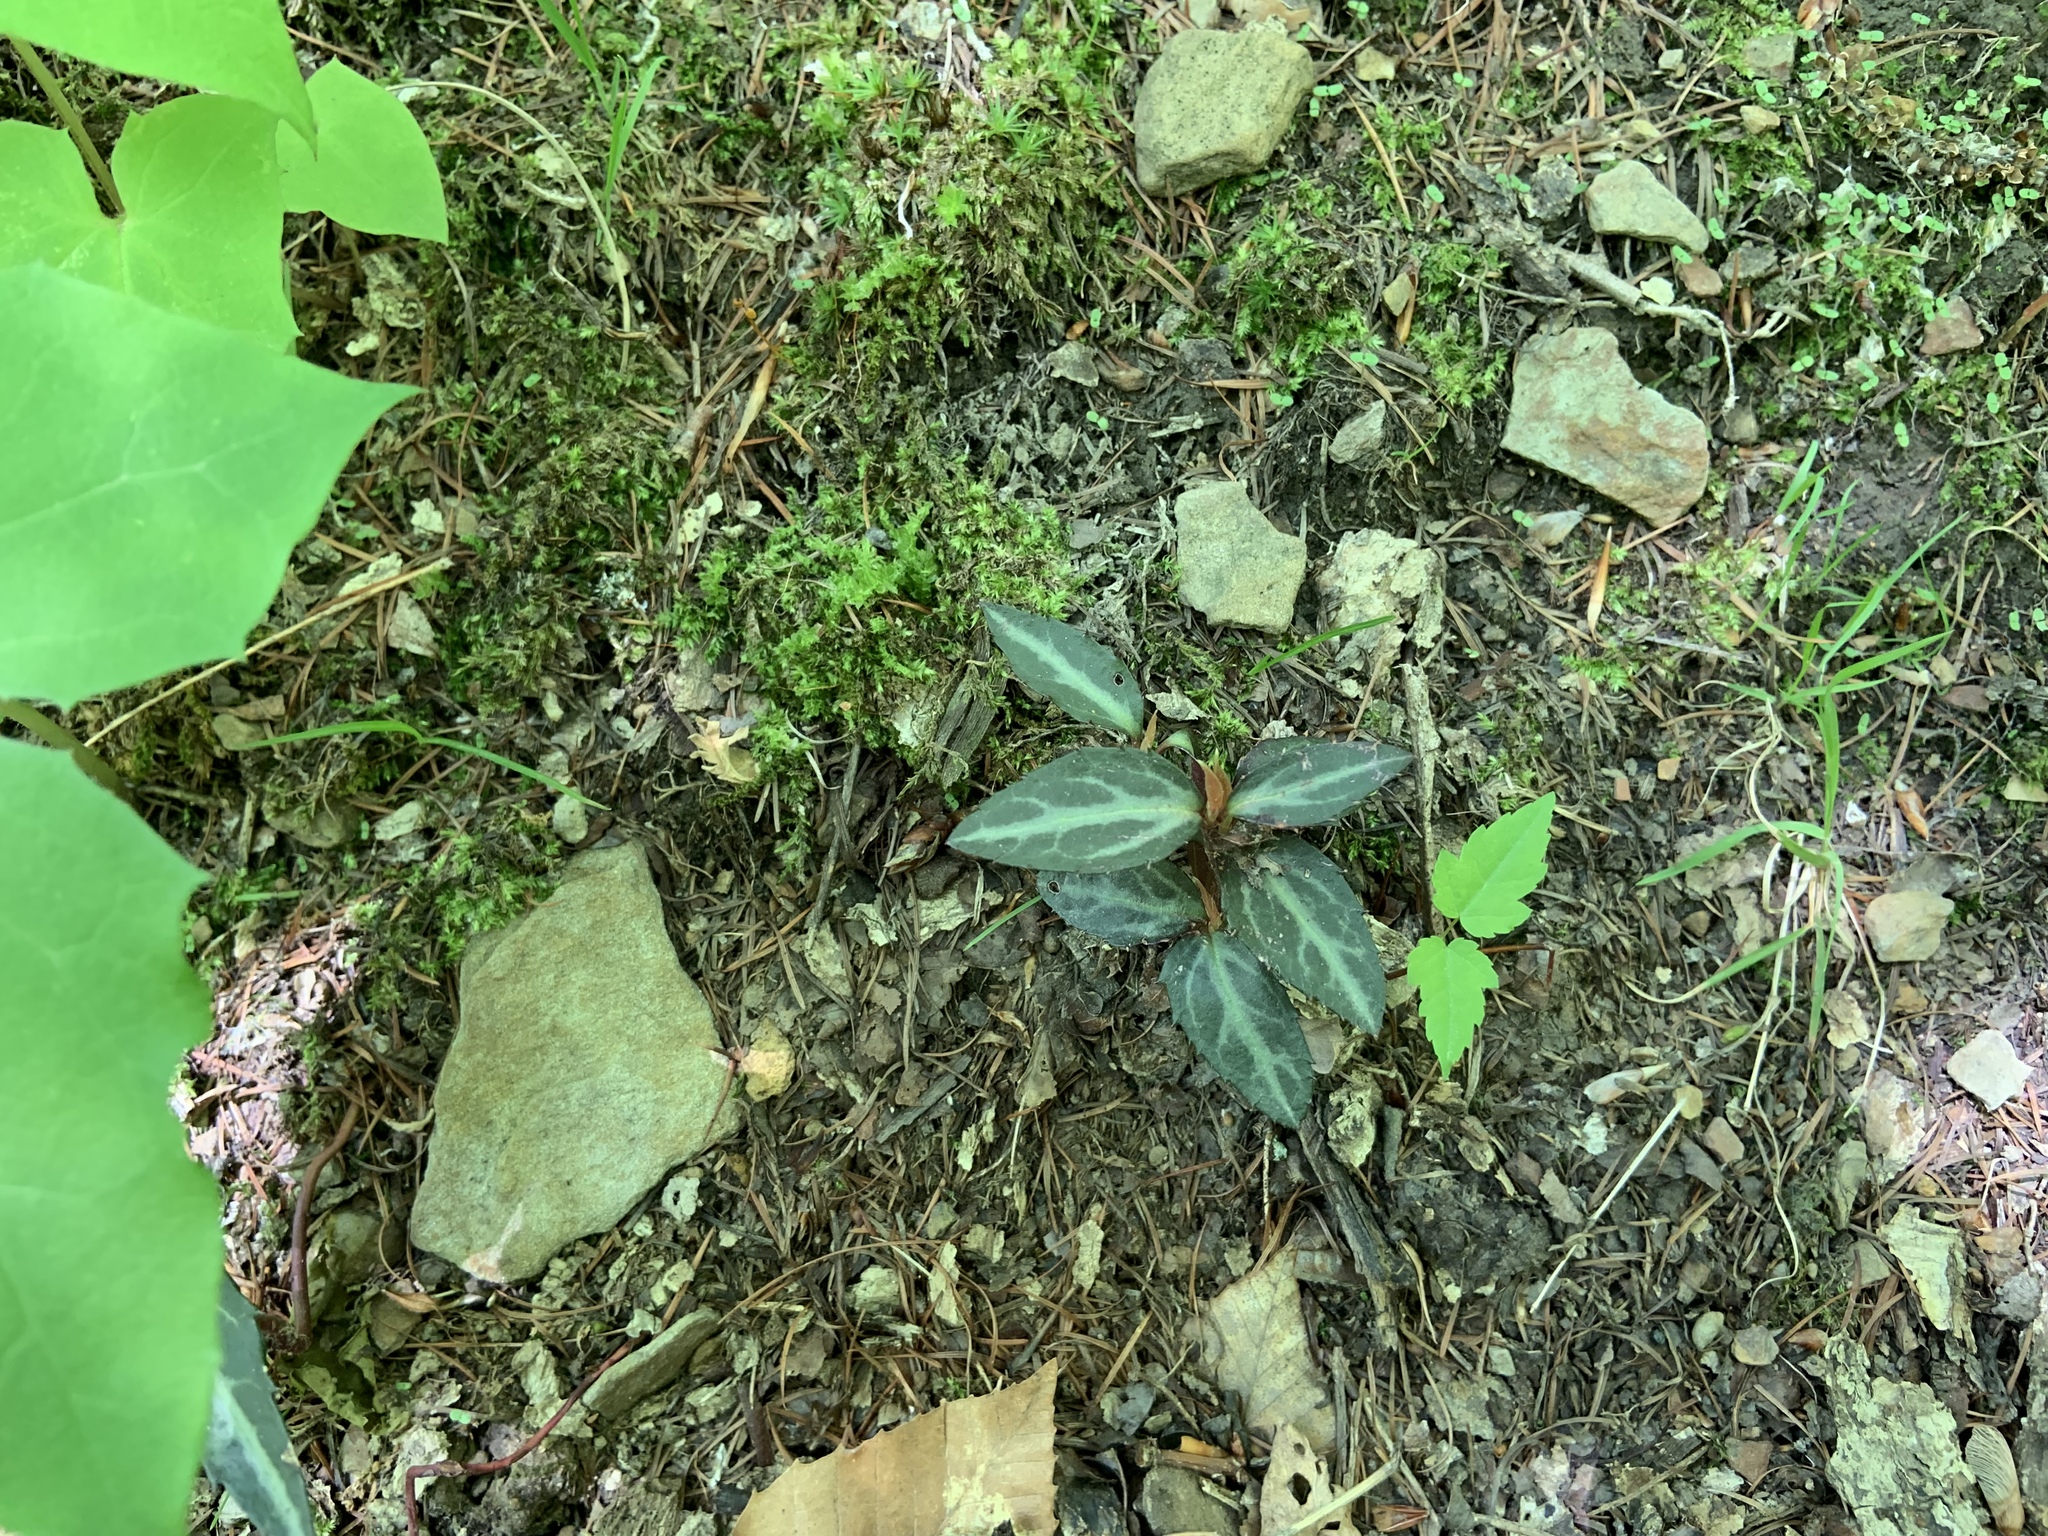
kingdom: Plantae
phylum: Tracheophyta
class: Magnoliopsida
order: Ericales
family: Ericaceae
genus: Chimaphila
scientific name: Chimaphila maculata
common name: Spotted pipsissewa
